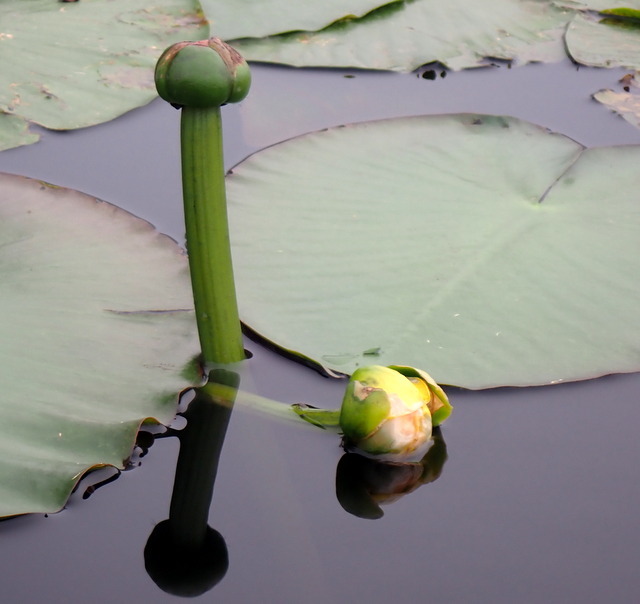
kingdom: Plantae
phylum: Tracheophyta
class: Magnoliopsida
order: Nymphaeales
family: Nymphaeaceae
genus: Nuphar
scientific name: Nuphar advena
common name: Spatter-dock
